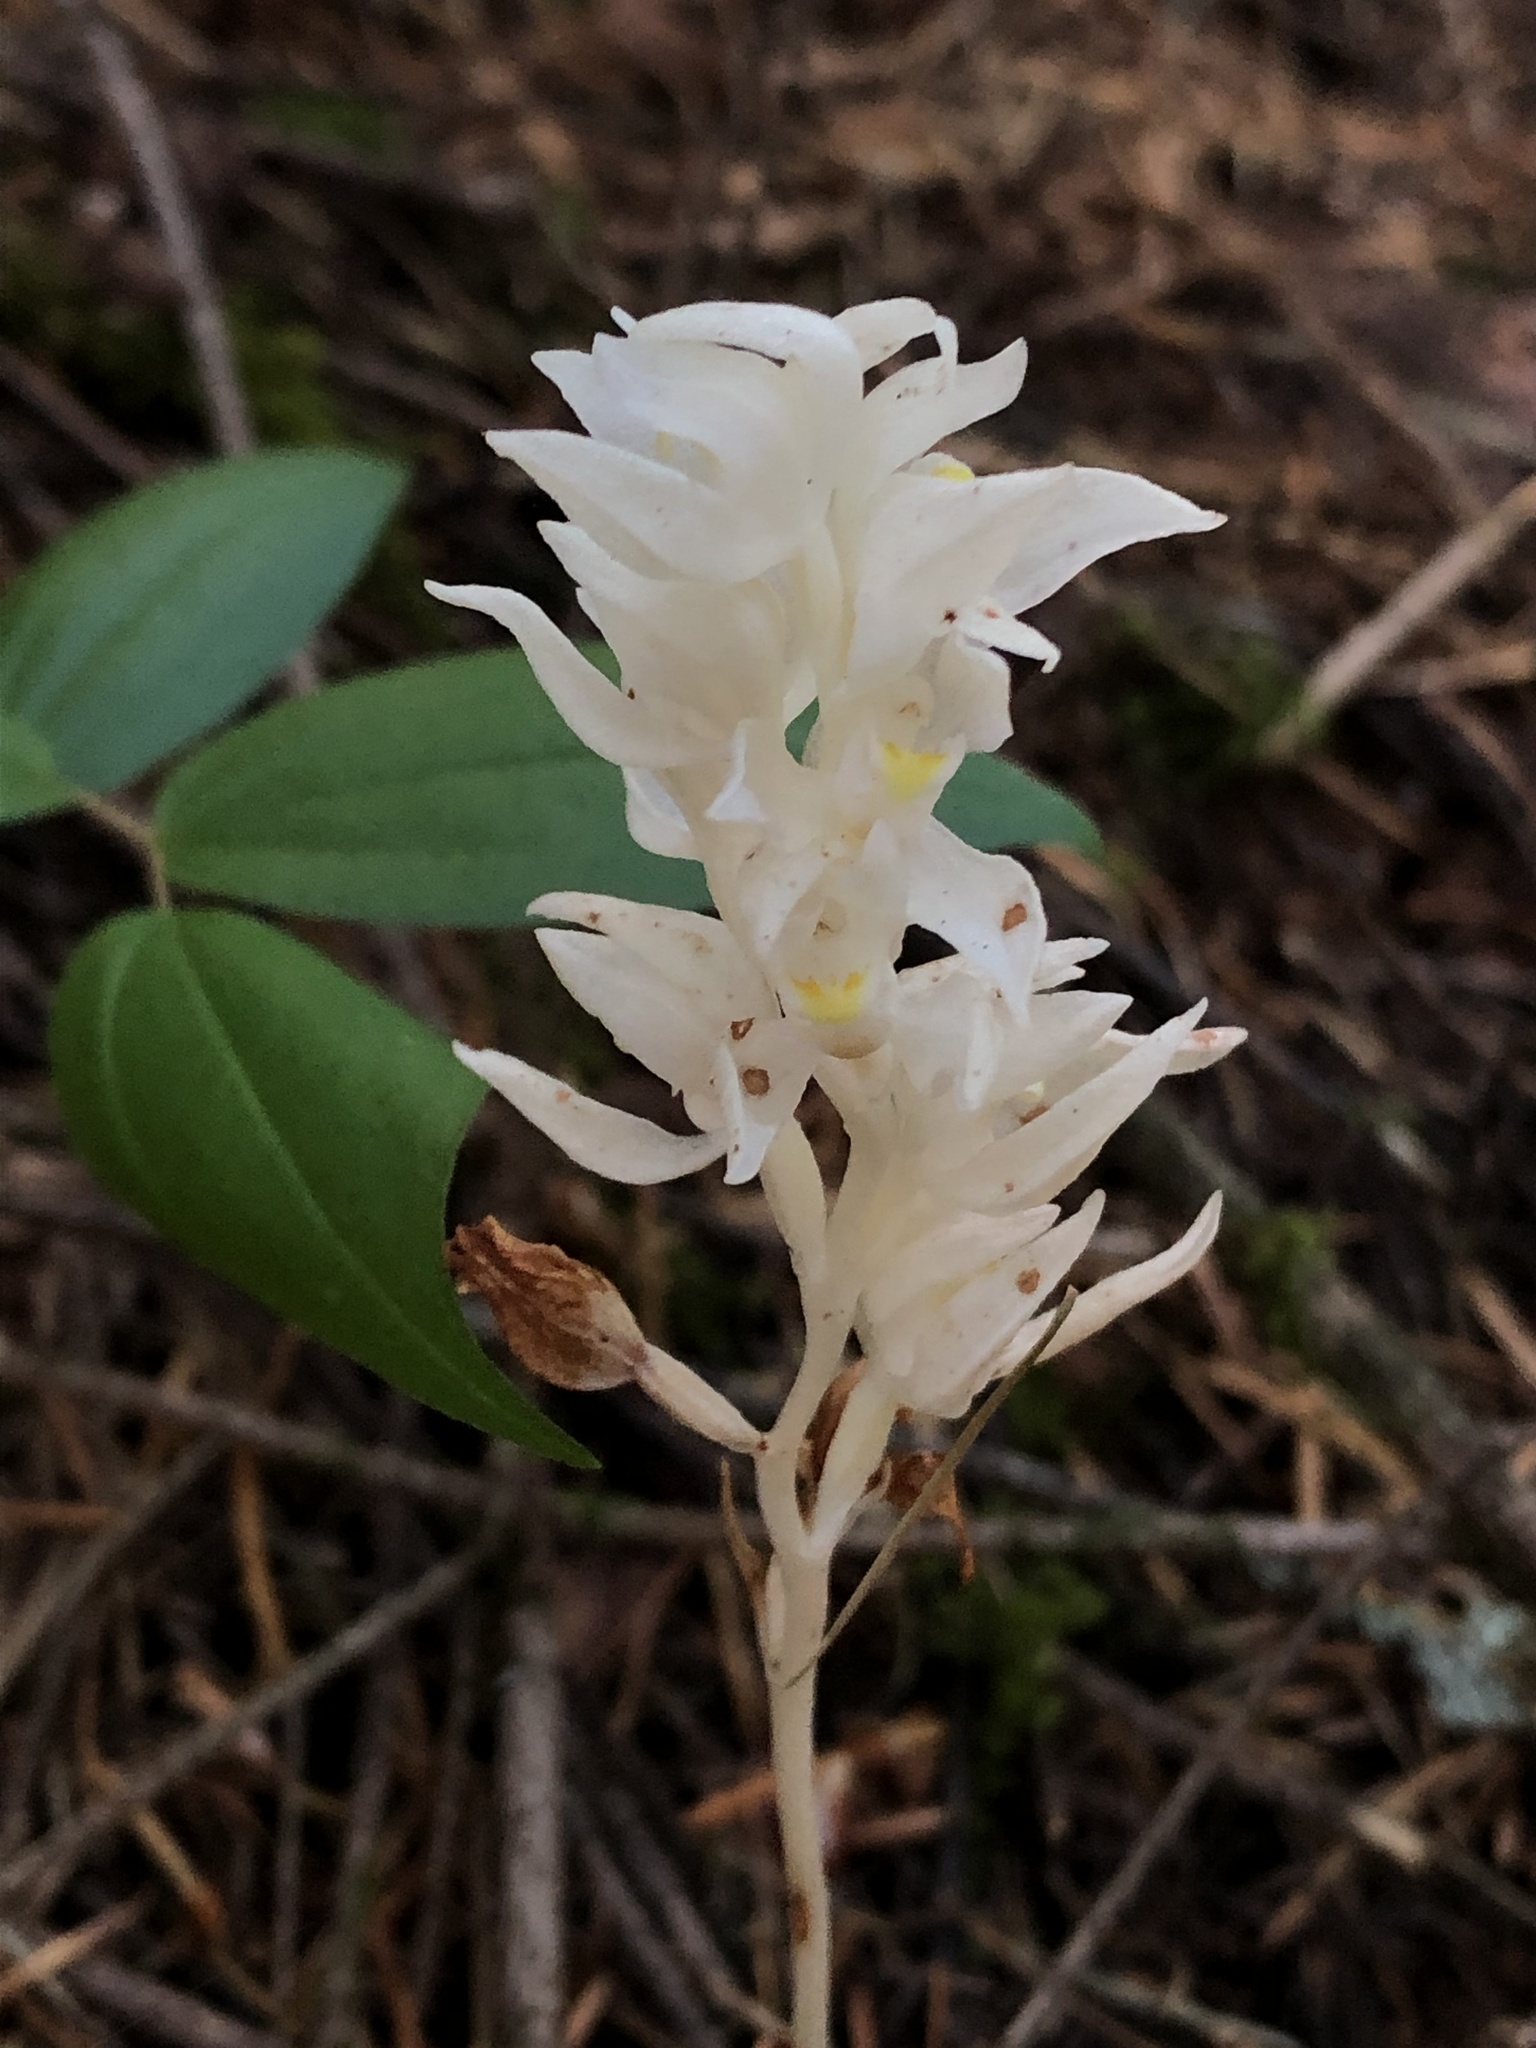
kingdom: Plantae
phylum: Tracheophyta
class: Liliopsida
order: Asparagales
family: Orchidaceae
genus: Cephalanthera
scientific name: Cephalanthera austiniae
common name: Phantom orchid
